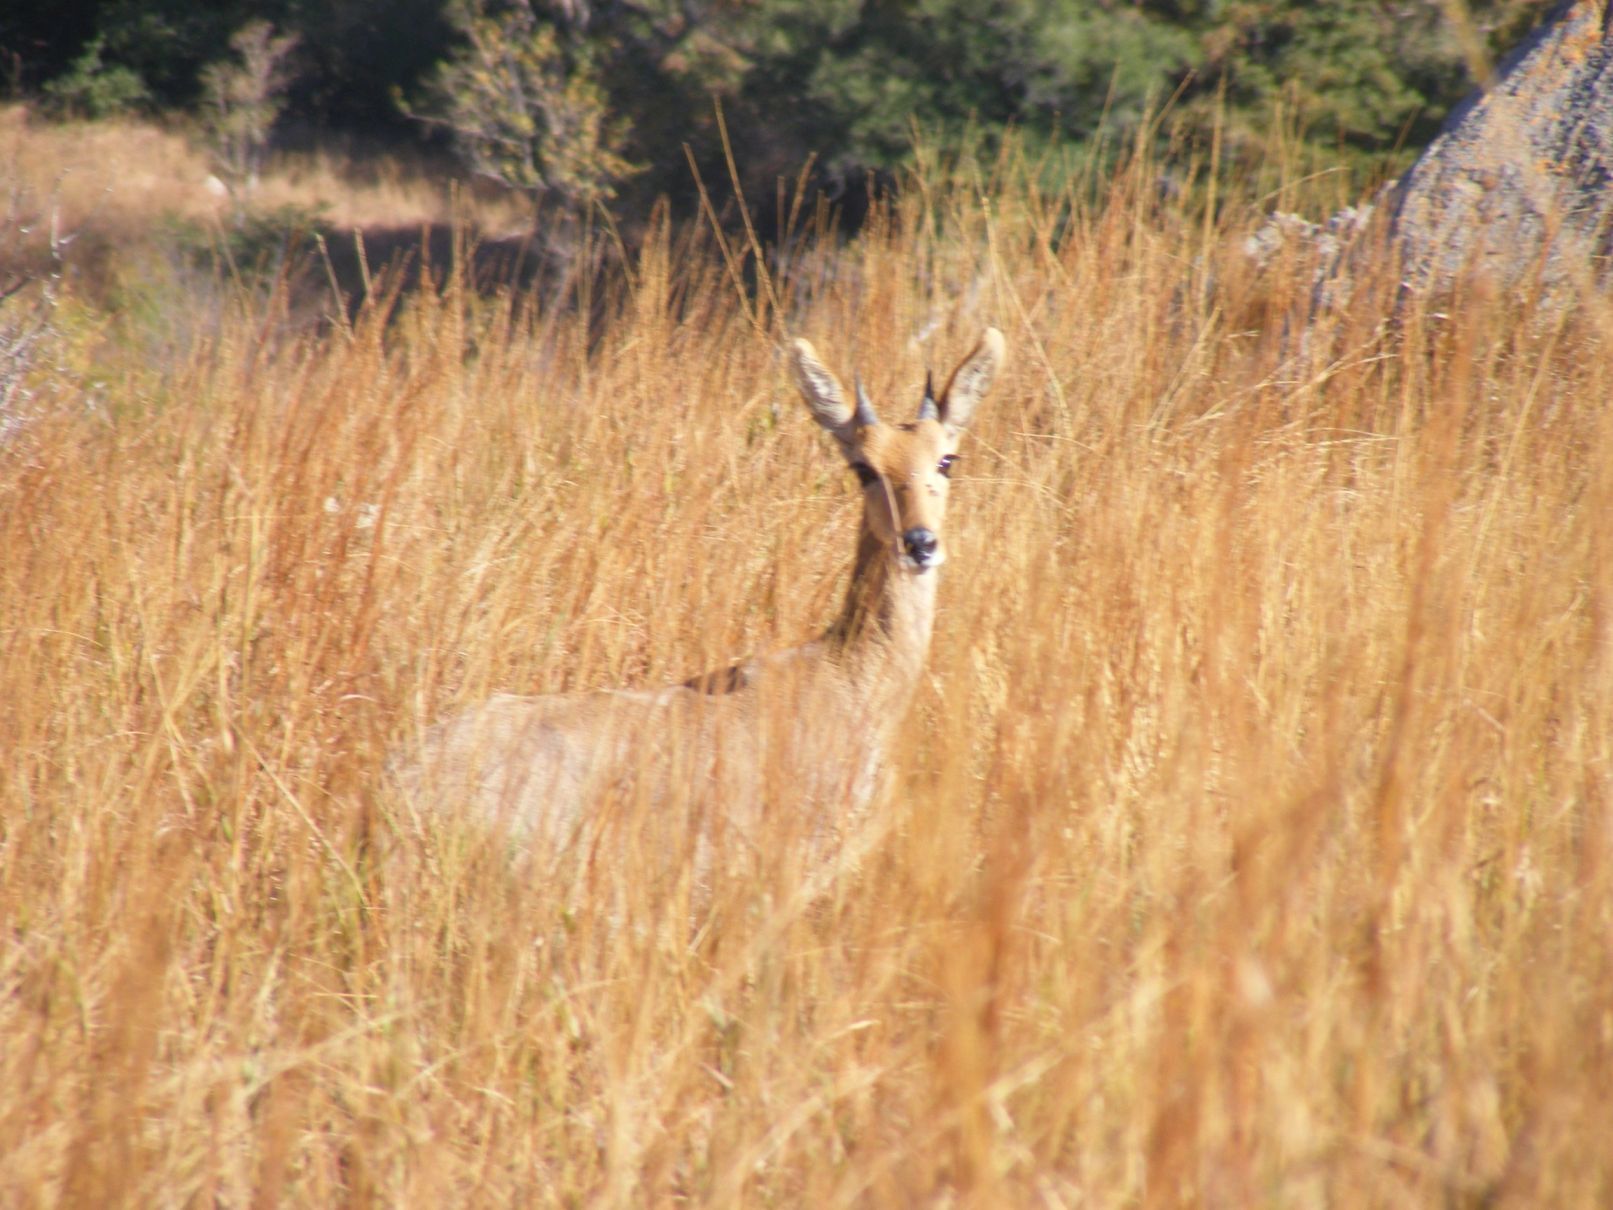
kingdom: Animalia
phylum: Chordata
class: Mammalia
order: Artiodactyla
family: Bovidae
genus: Redunca
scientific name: Redunca fulvorufula
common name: Mountain reedbuck
